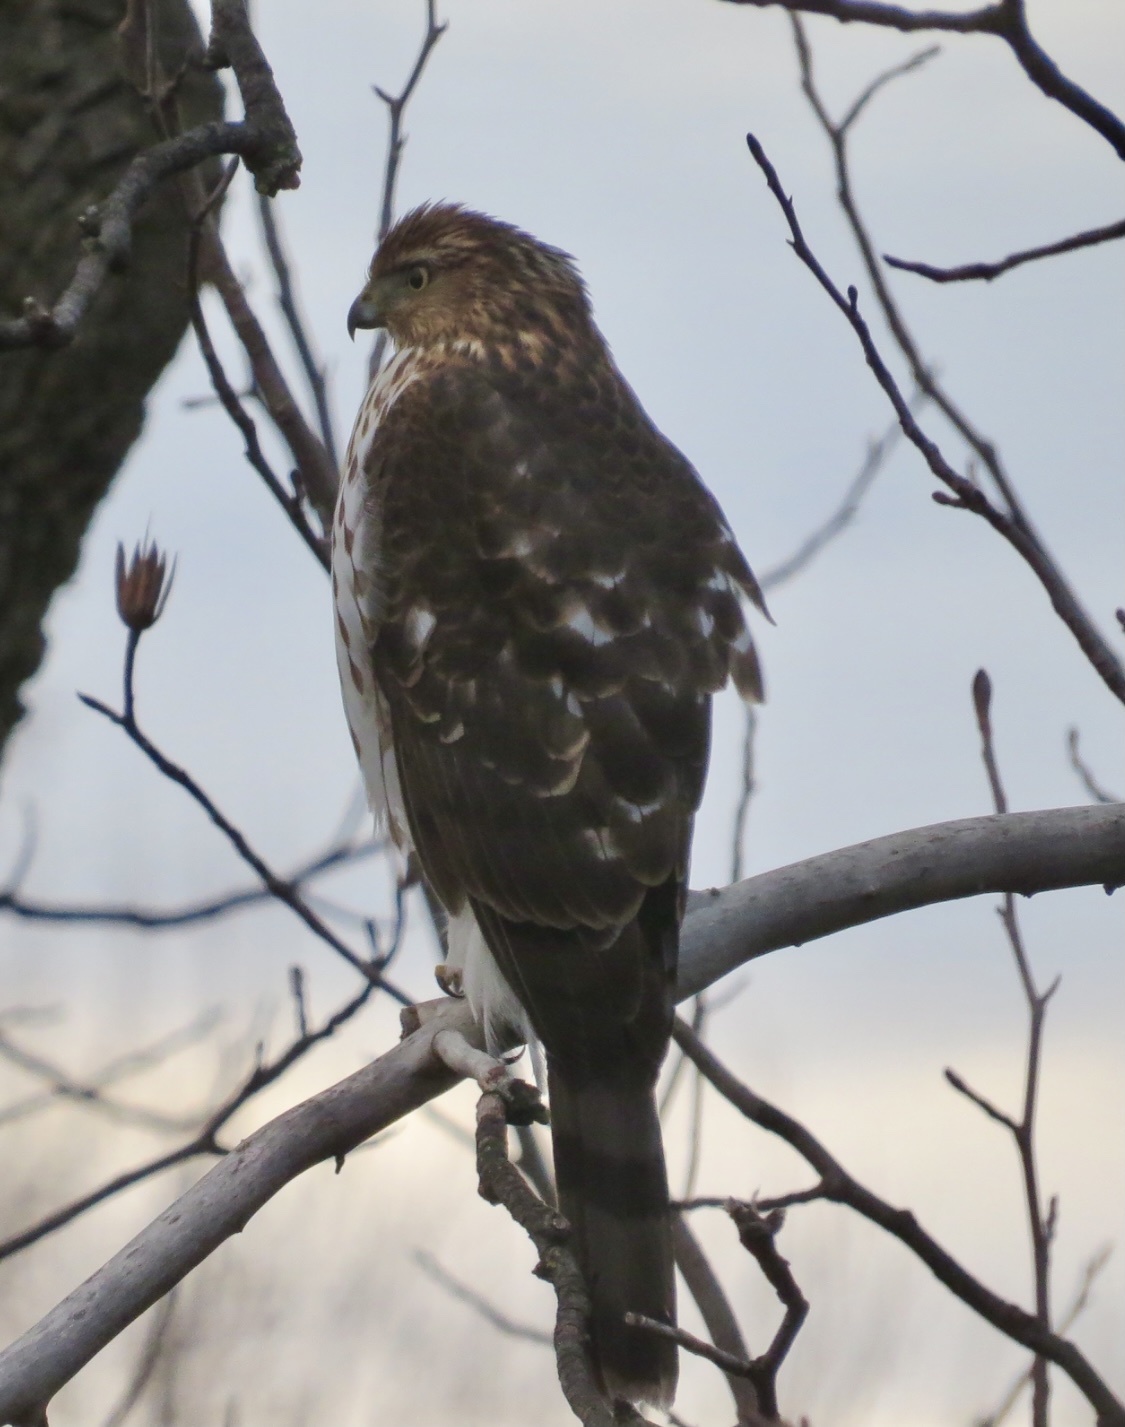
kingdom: Animalia
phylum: Chordata
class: Aves
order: Accipitriformes
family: Accipitridae
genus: Accipiter
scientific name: Accipiter cooperii
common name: Cooper's hawk
